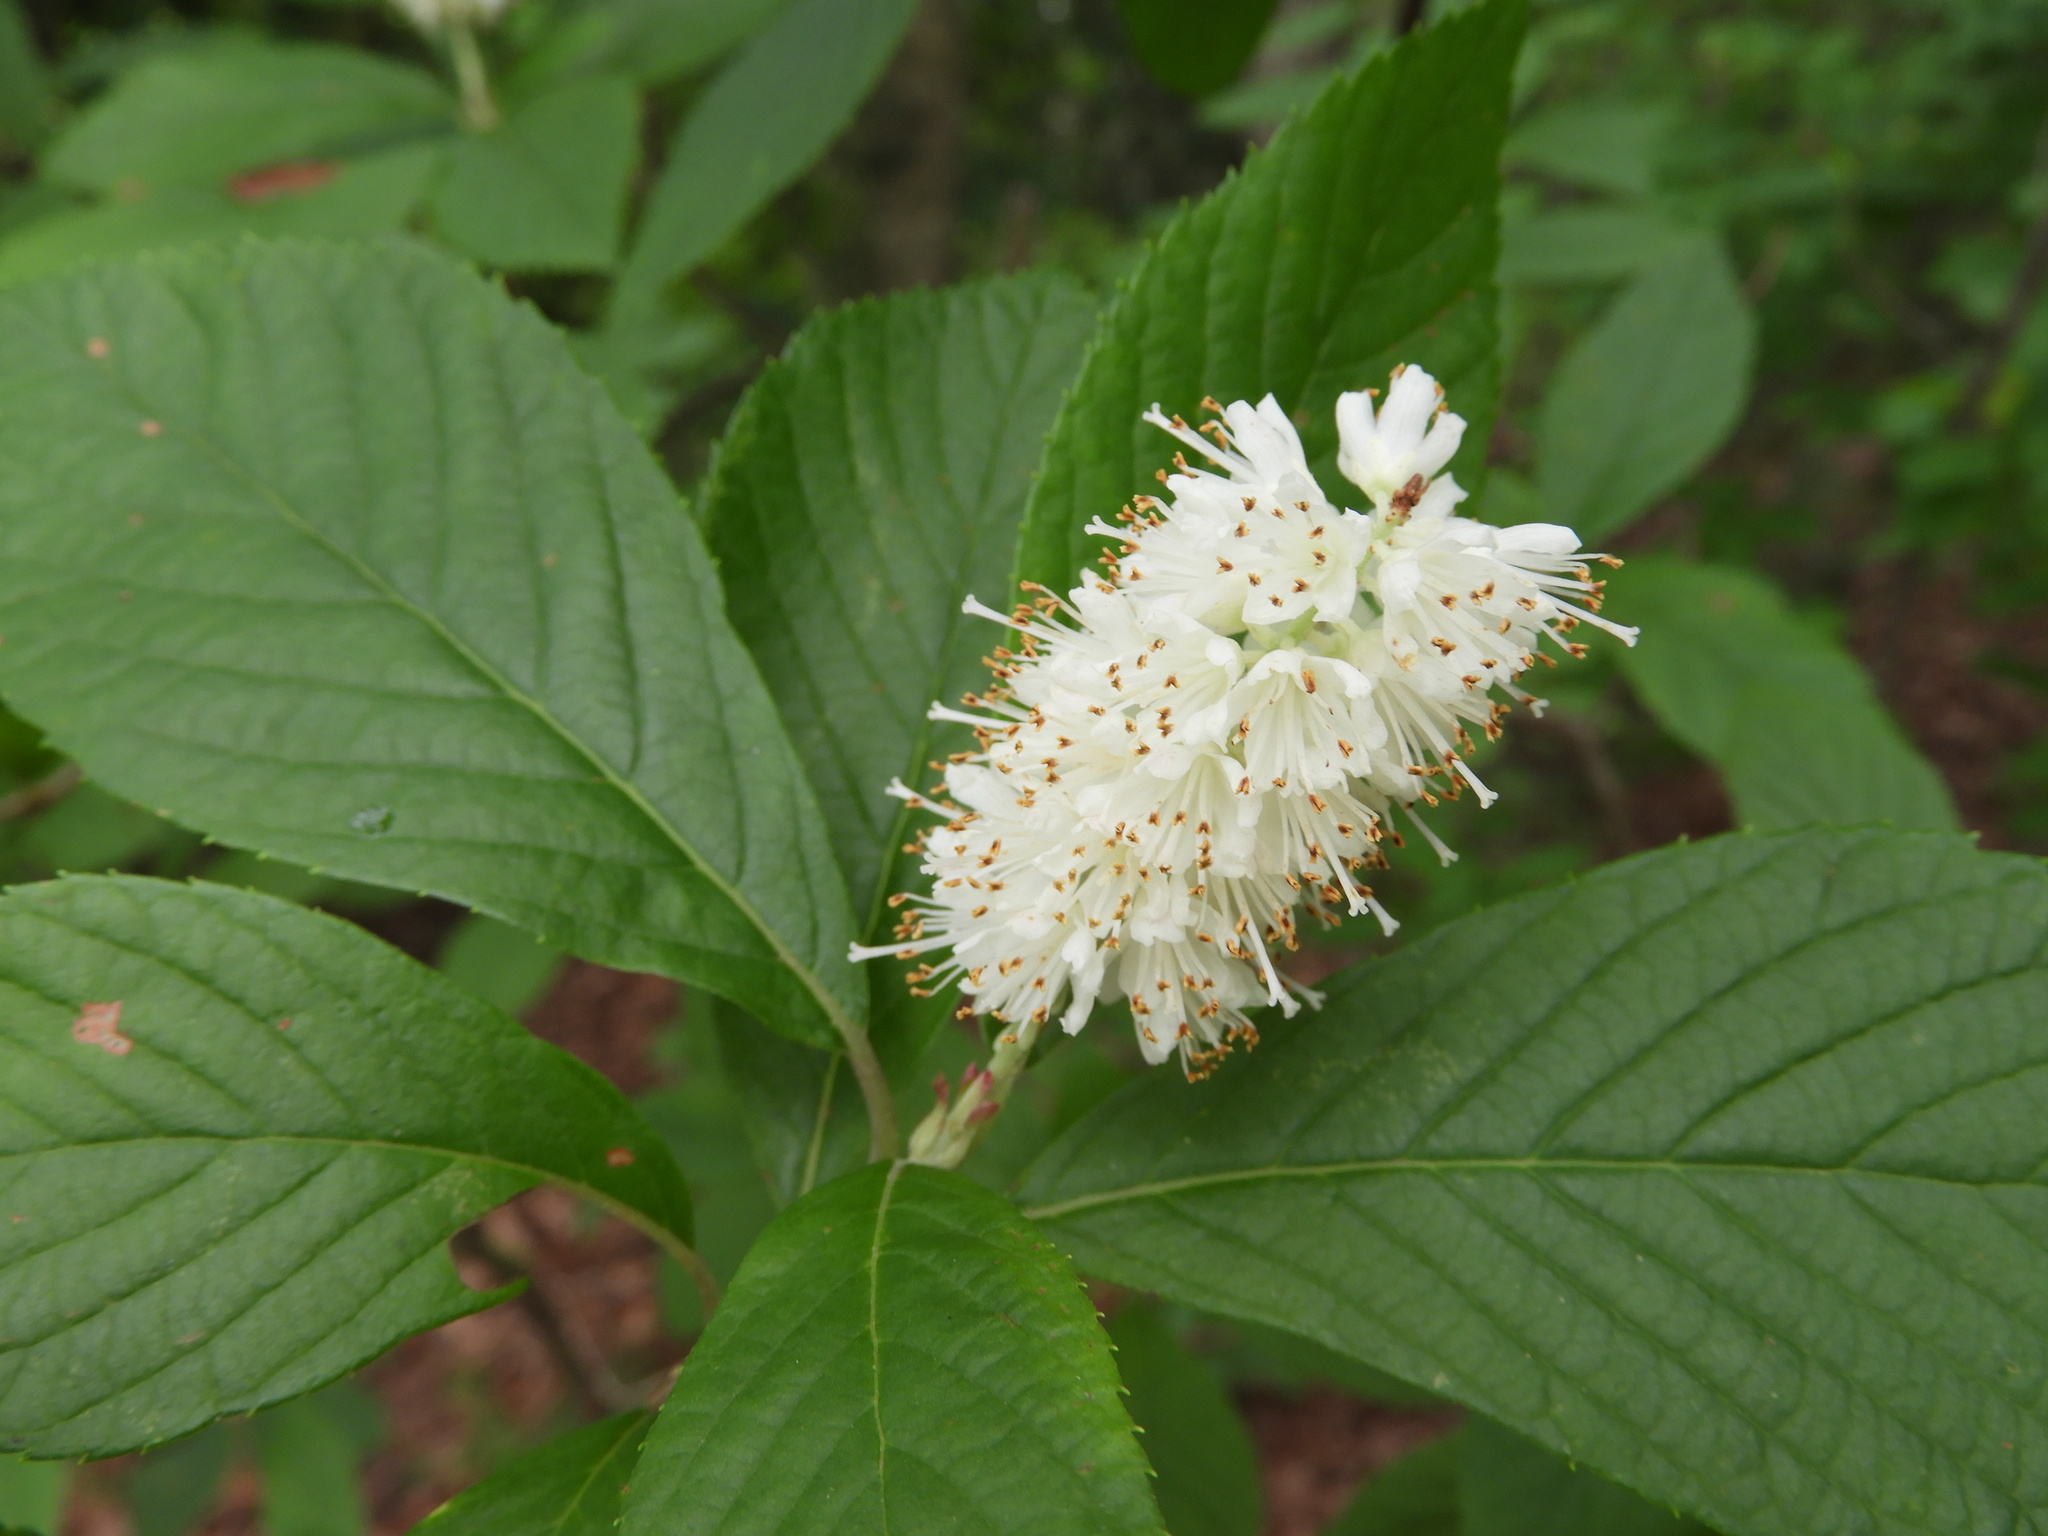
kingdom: Plantae
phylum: Tracheophyta
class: Magnoliopsida
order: Ericales
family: Clethraceae
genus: Clethra
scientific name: Clethra alnifolia
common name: Sweet pepperbush
